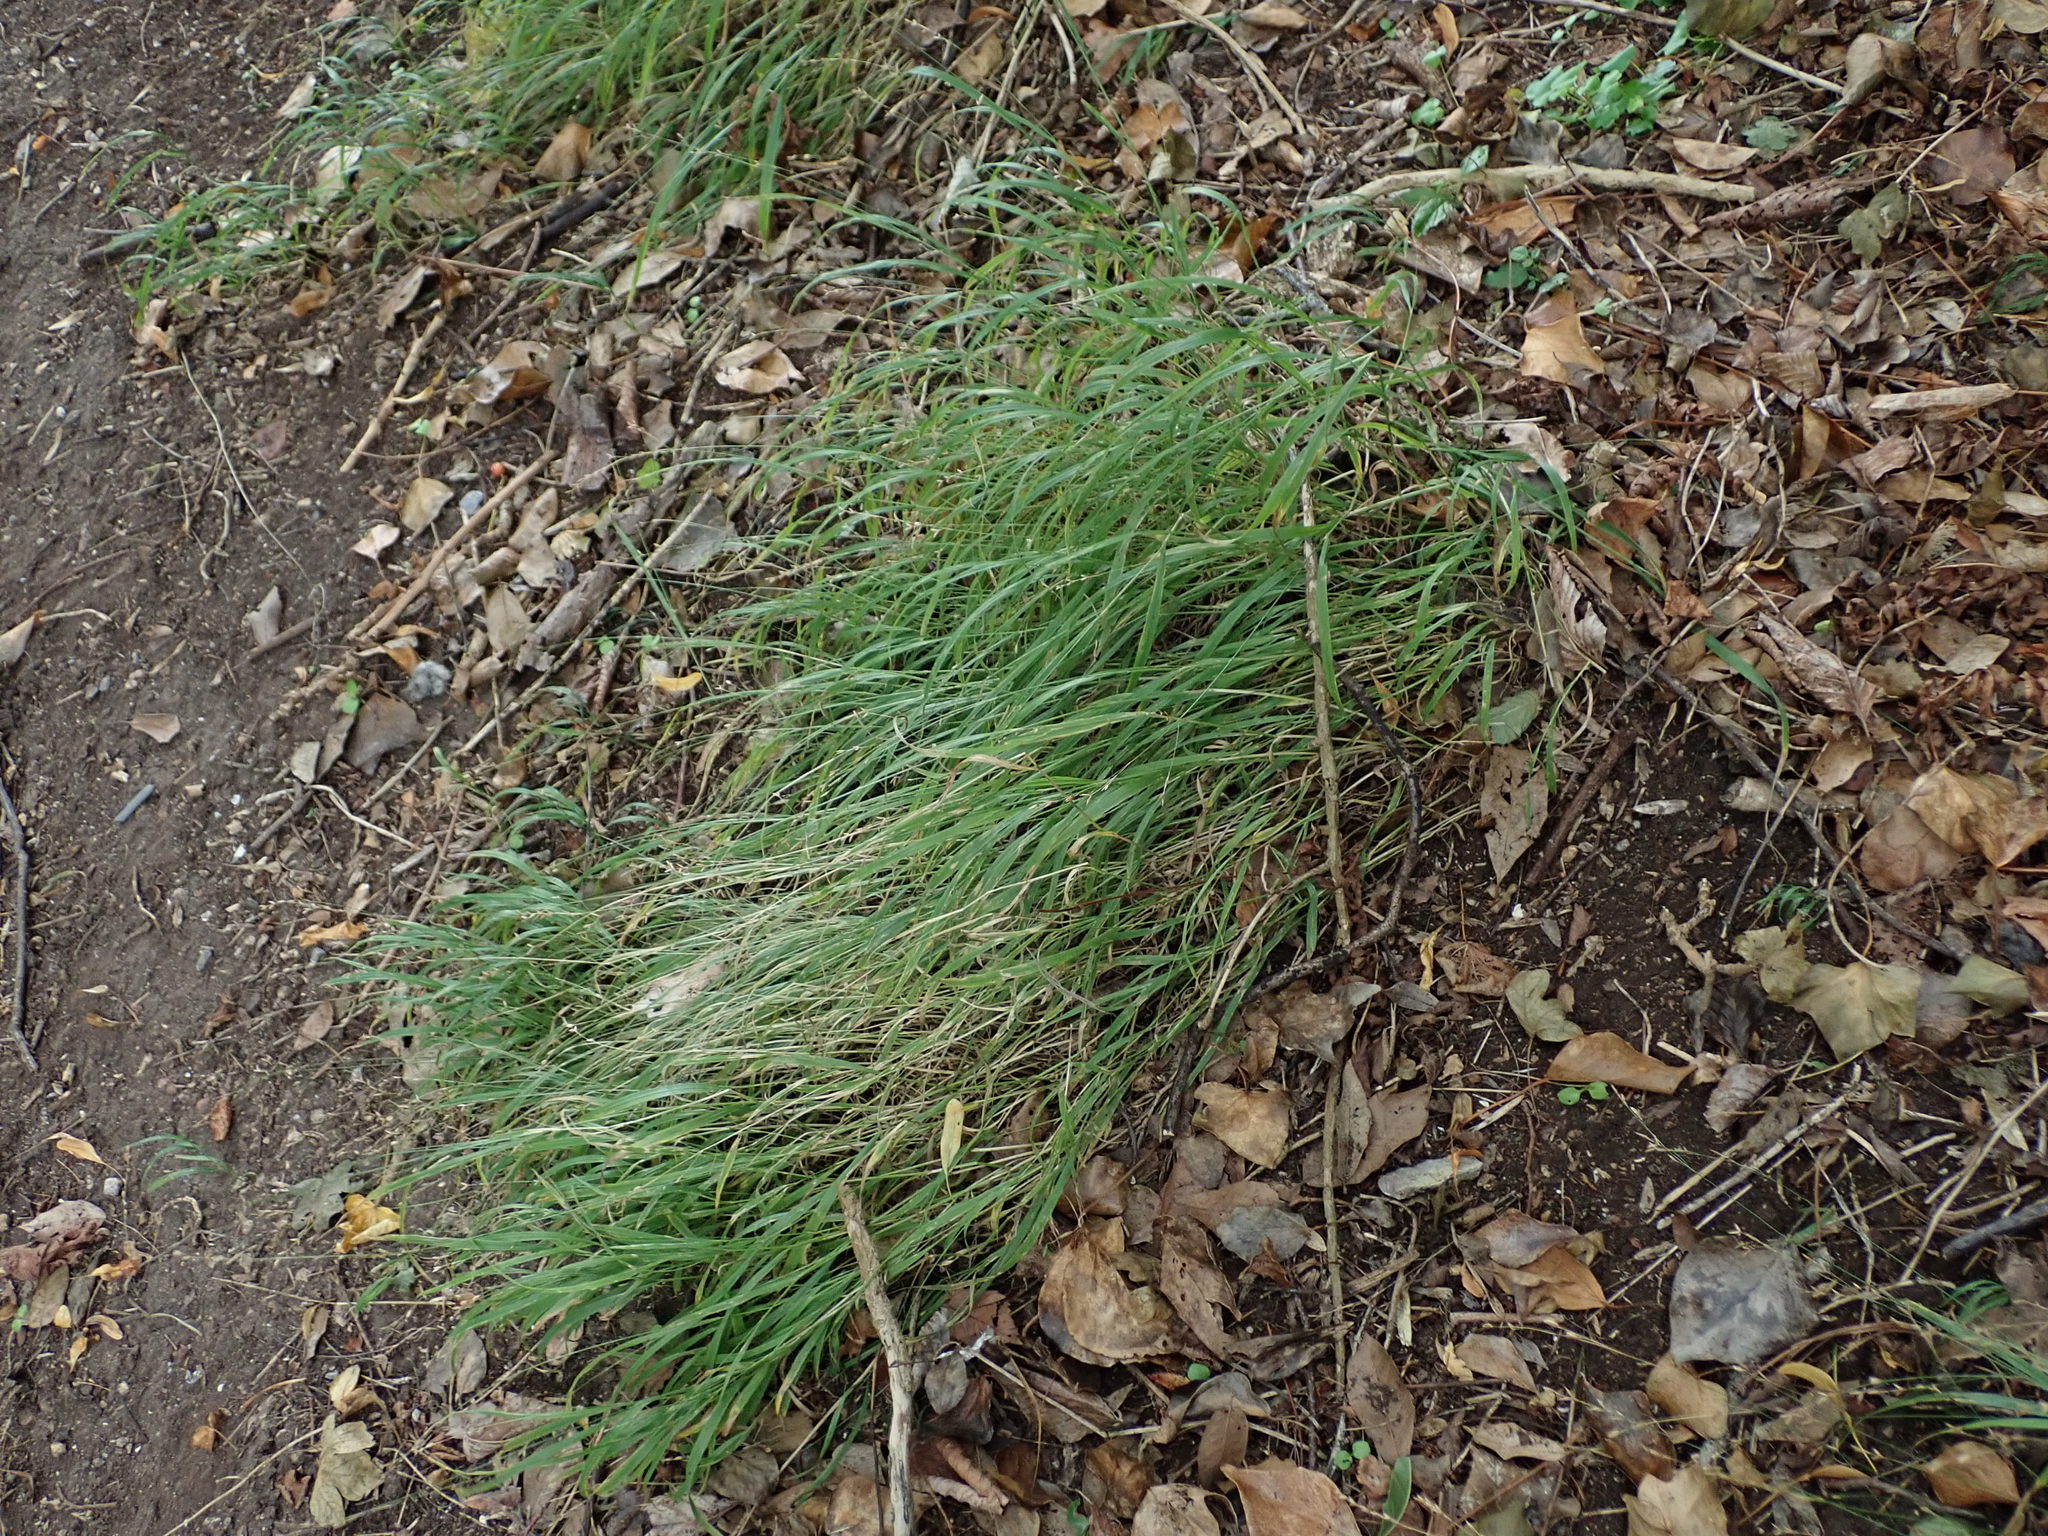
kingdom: Plantae
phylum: Tracheophyta
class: Liliopsida
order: Poales
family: Poaceae
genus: Melica
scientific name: Melica uniflora
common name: Wood melick
